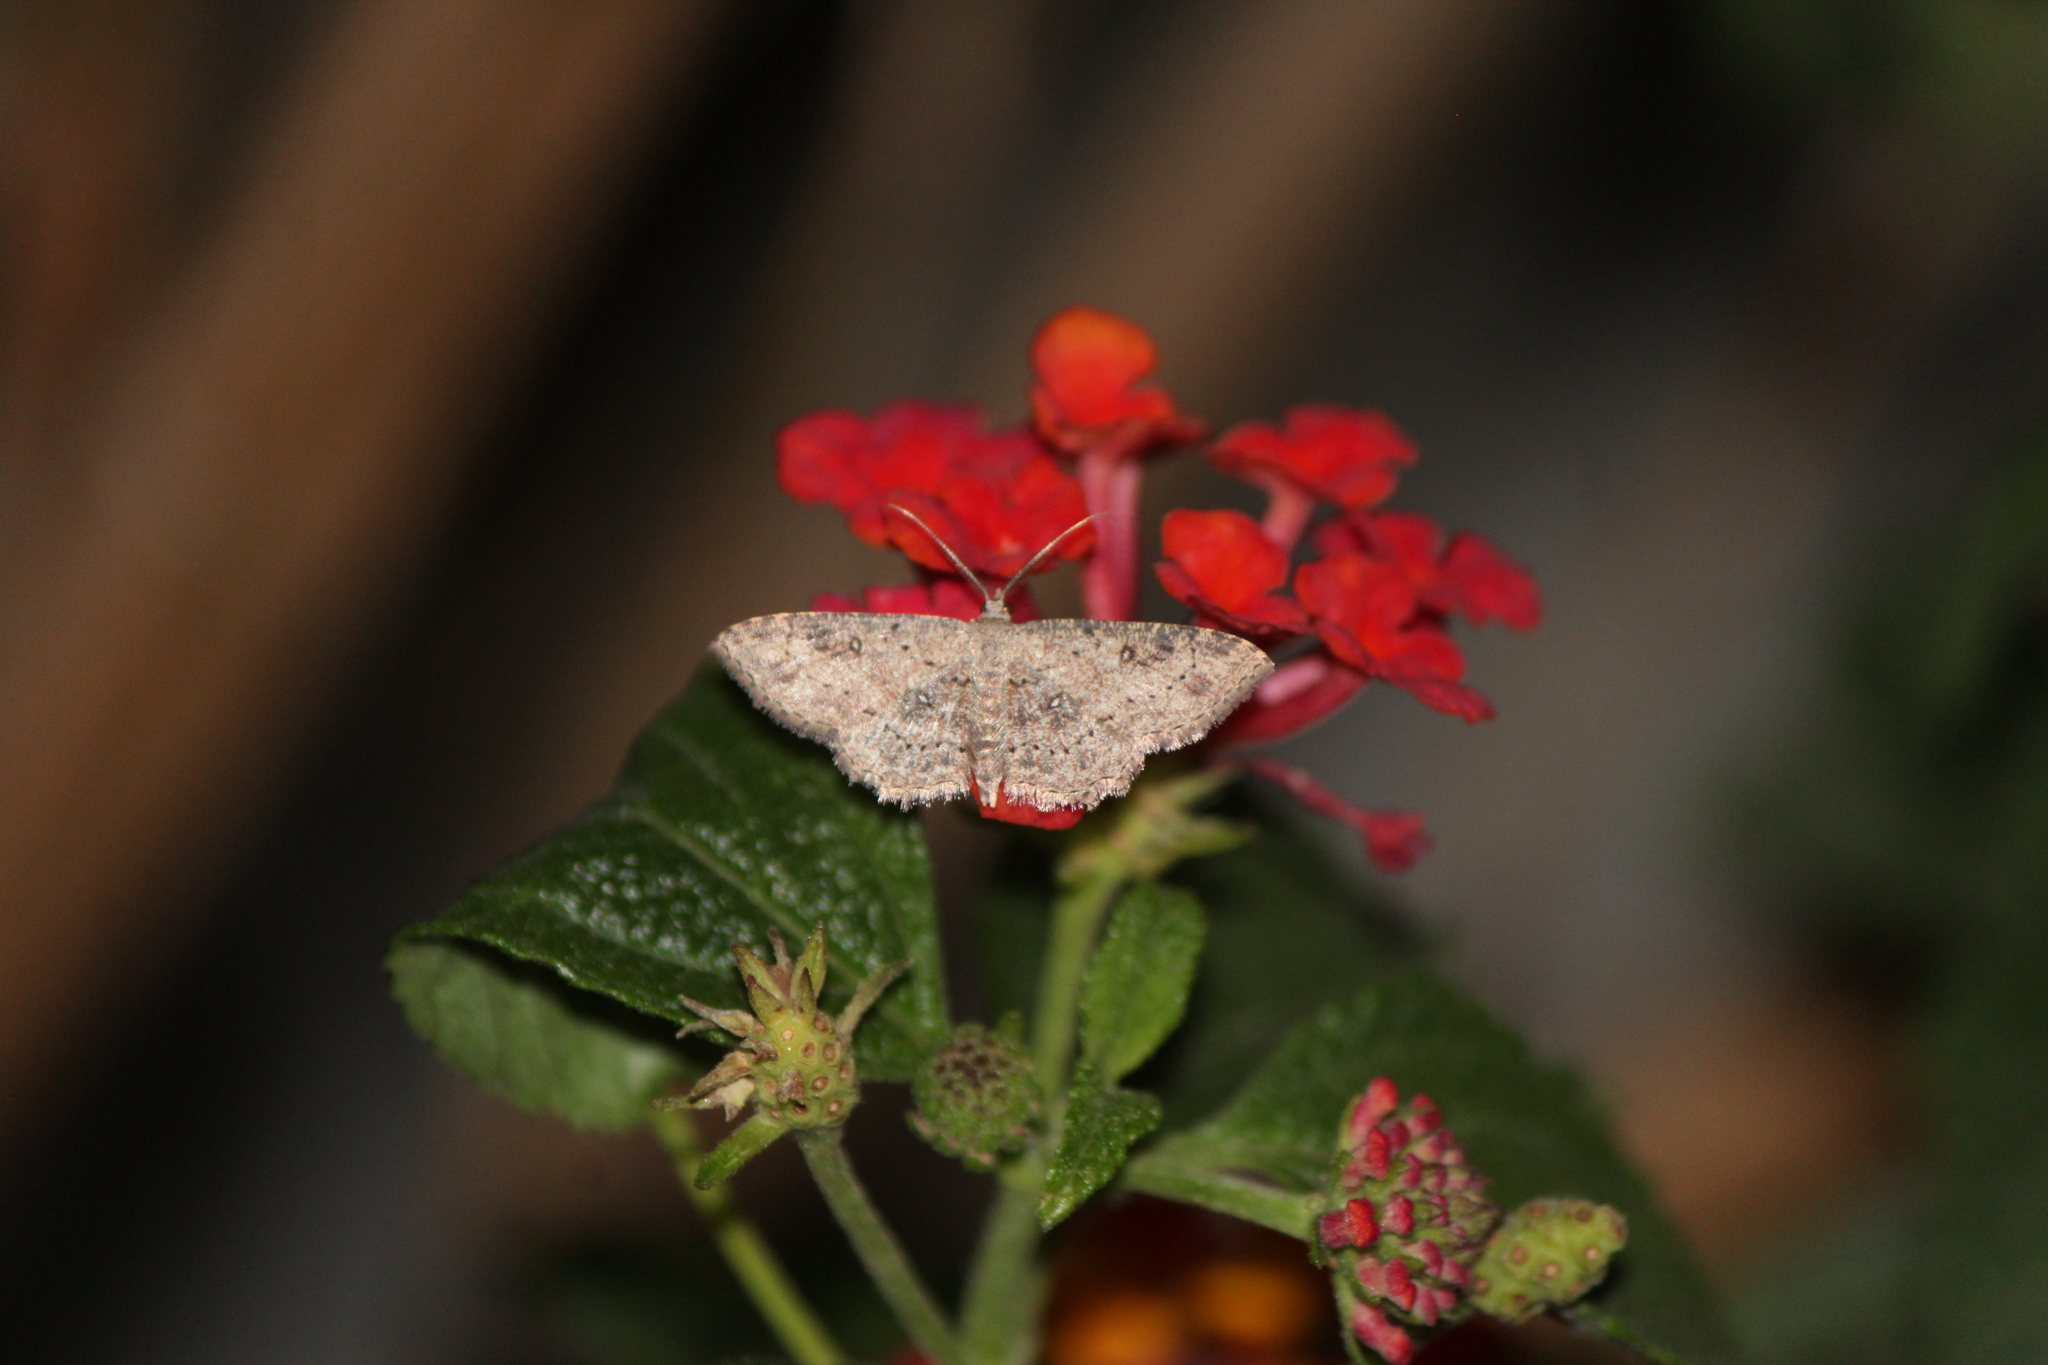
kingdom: Animalia
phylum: Arthropoda
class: Insecta
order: Lepidoptera
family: Geometridae
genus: Cyclophora
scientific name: Cyclophora nanaria
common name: Cankerworm
